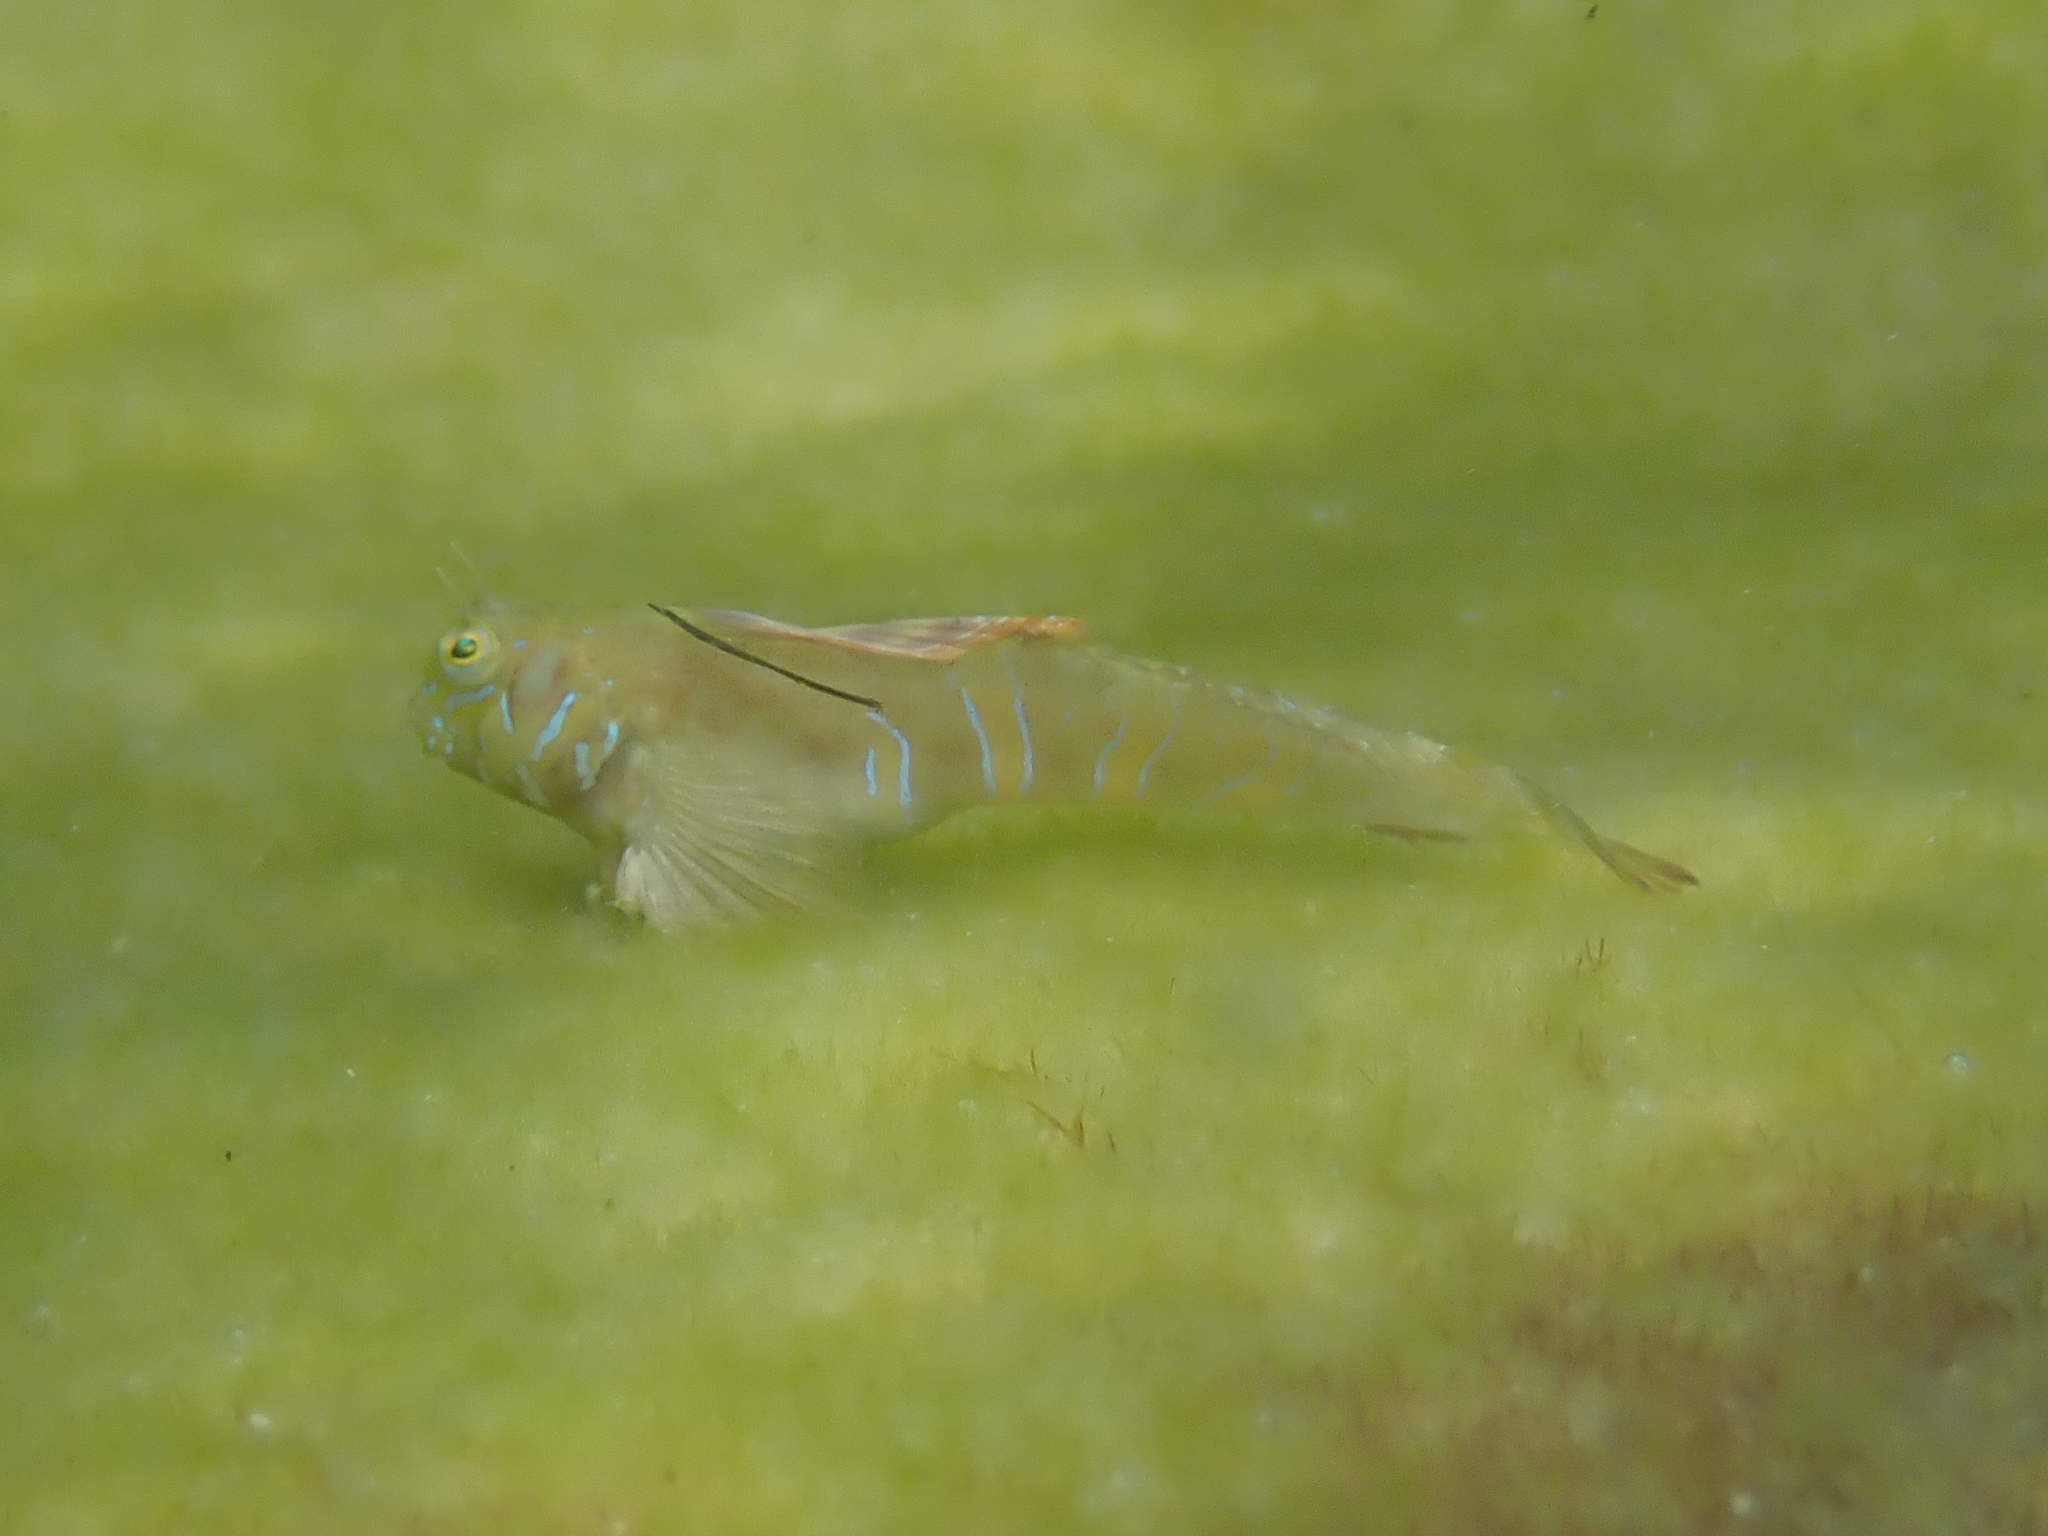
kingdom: Animalia
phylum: Chordata
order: Perciformes
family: Blenniidae
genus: Aidablennius
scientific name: Aidablennius sphynx
